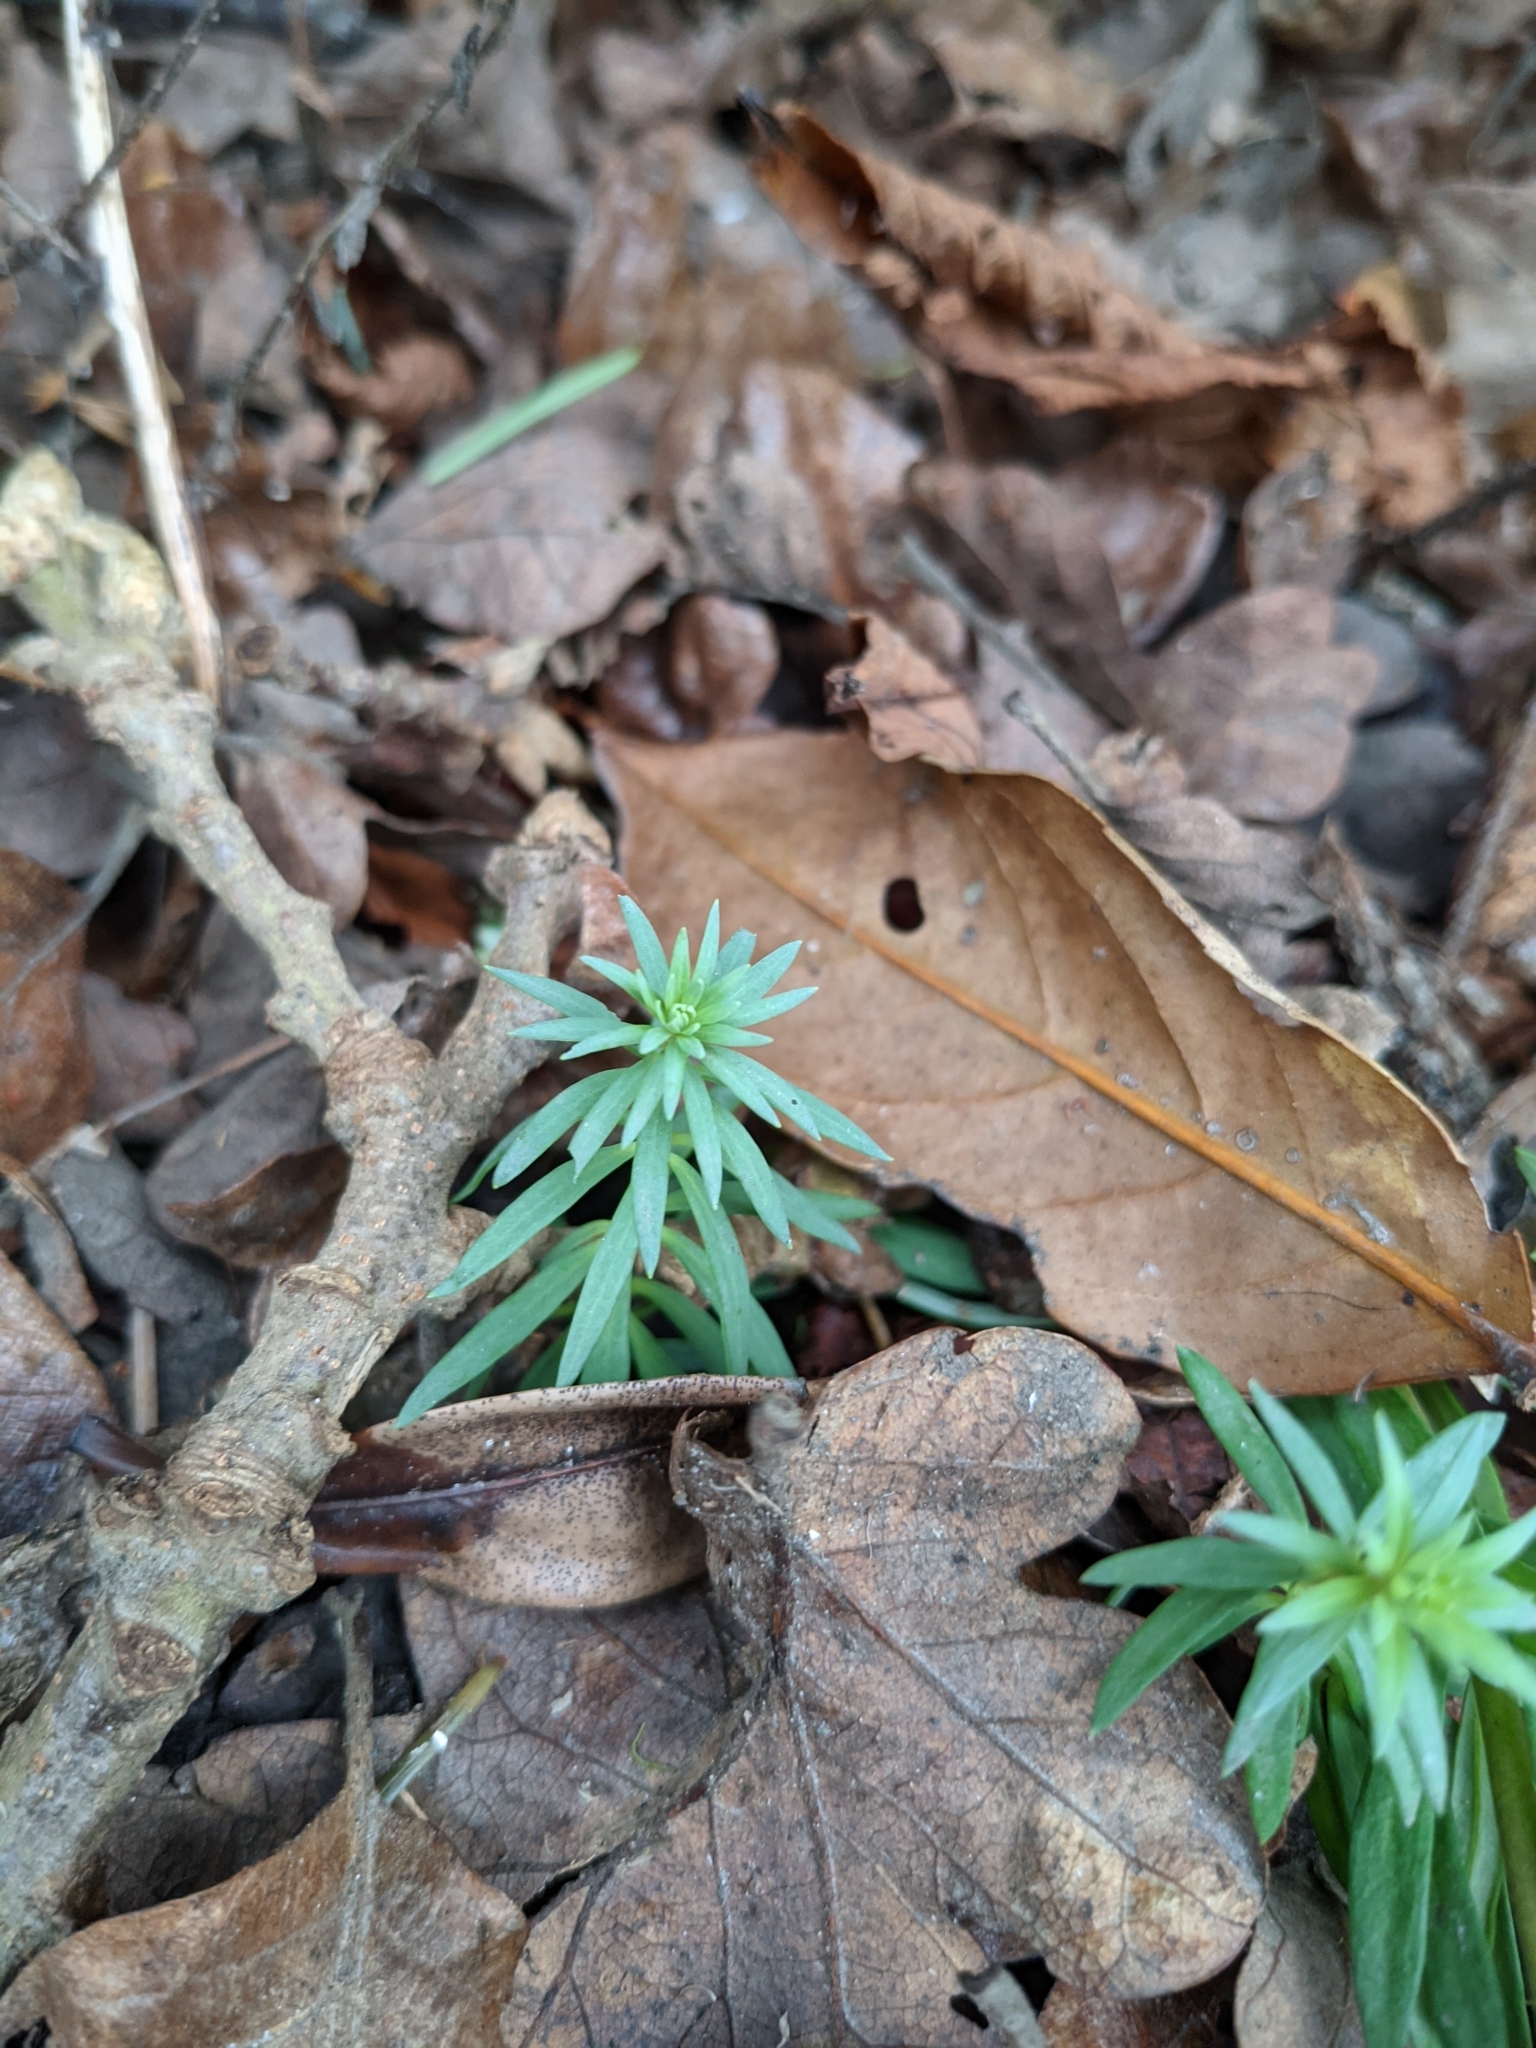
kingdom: Plantae
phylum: Tracheophyta
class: Magnoliopsida
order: Lamiales
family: Plantaginaceae
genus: Linaria
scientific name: Linaria purpurea
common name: Purple toadflax
